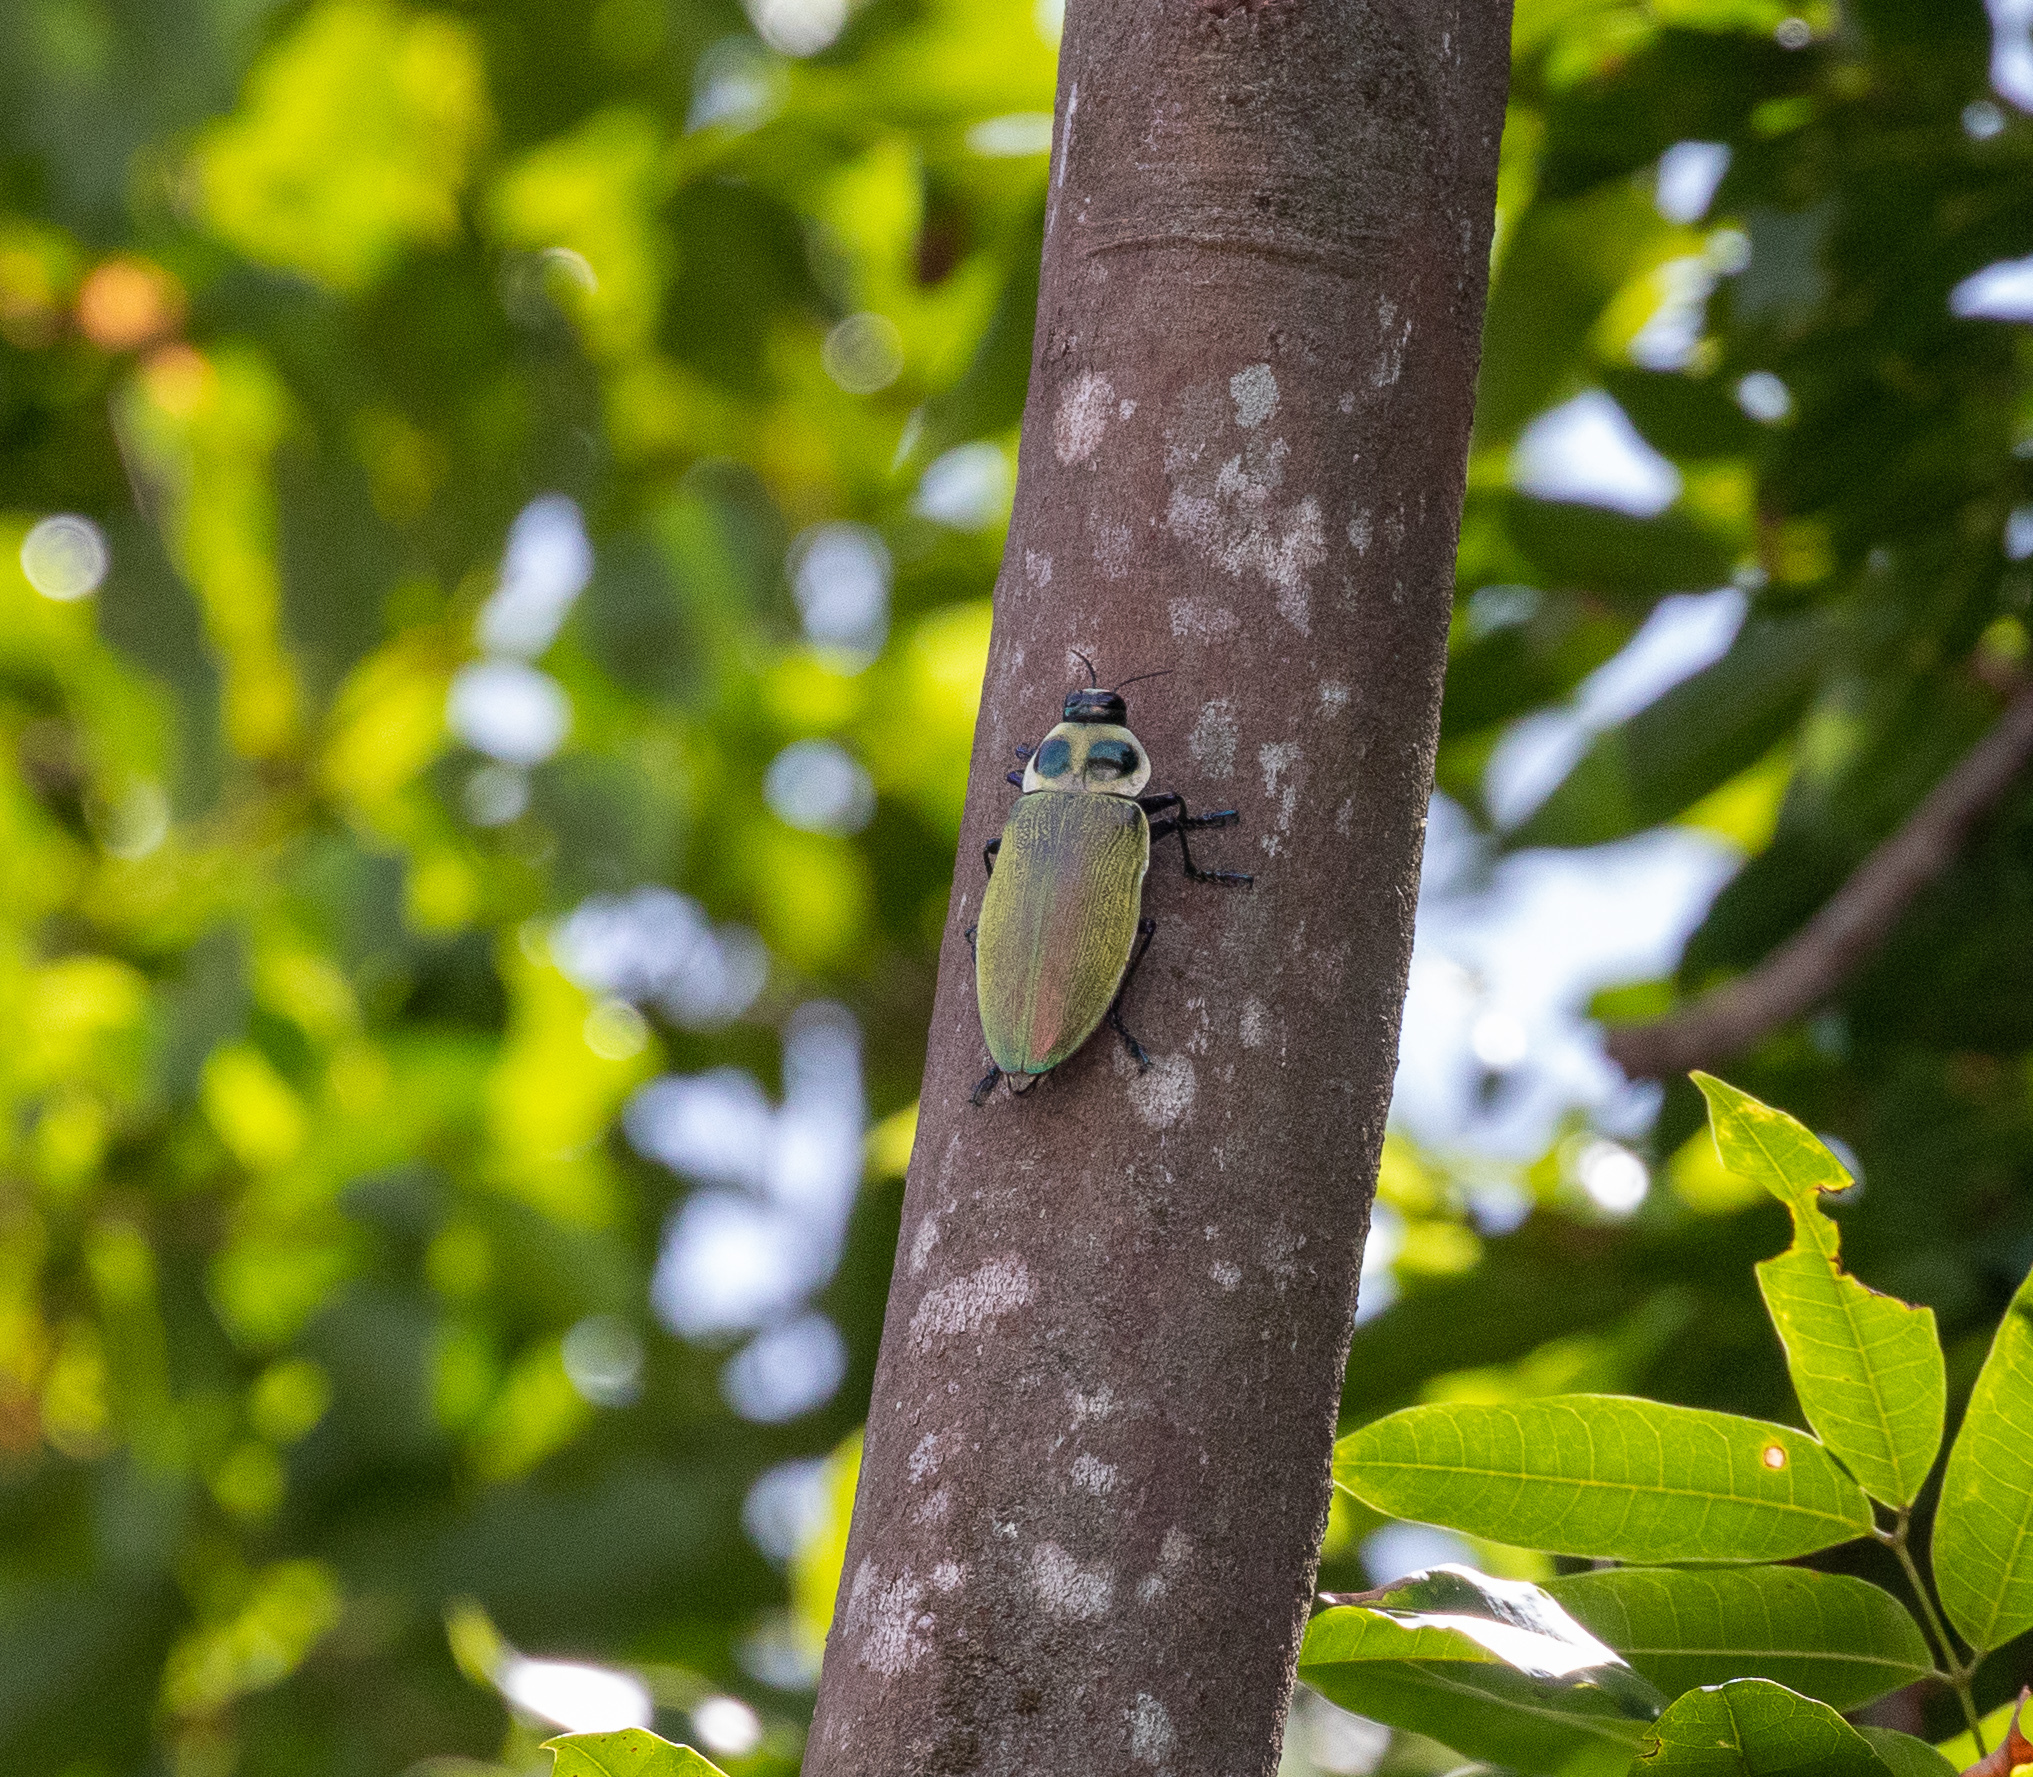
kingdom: Animalia
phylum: Arthropoda
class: Insecta
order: Coleoptera
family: Buprestidae
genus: Euchroma
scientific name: Euchroma giganteum
